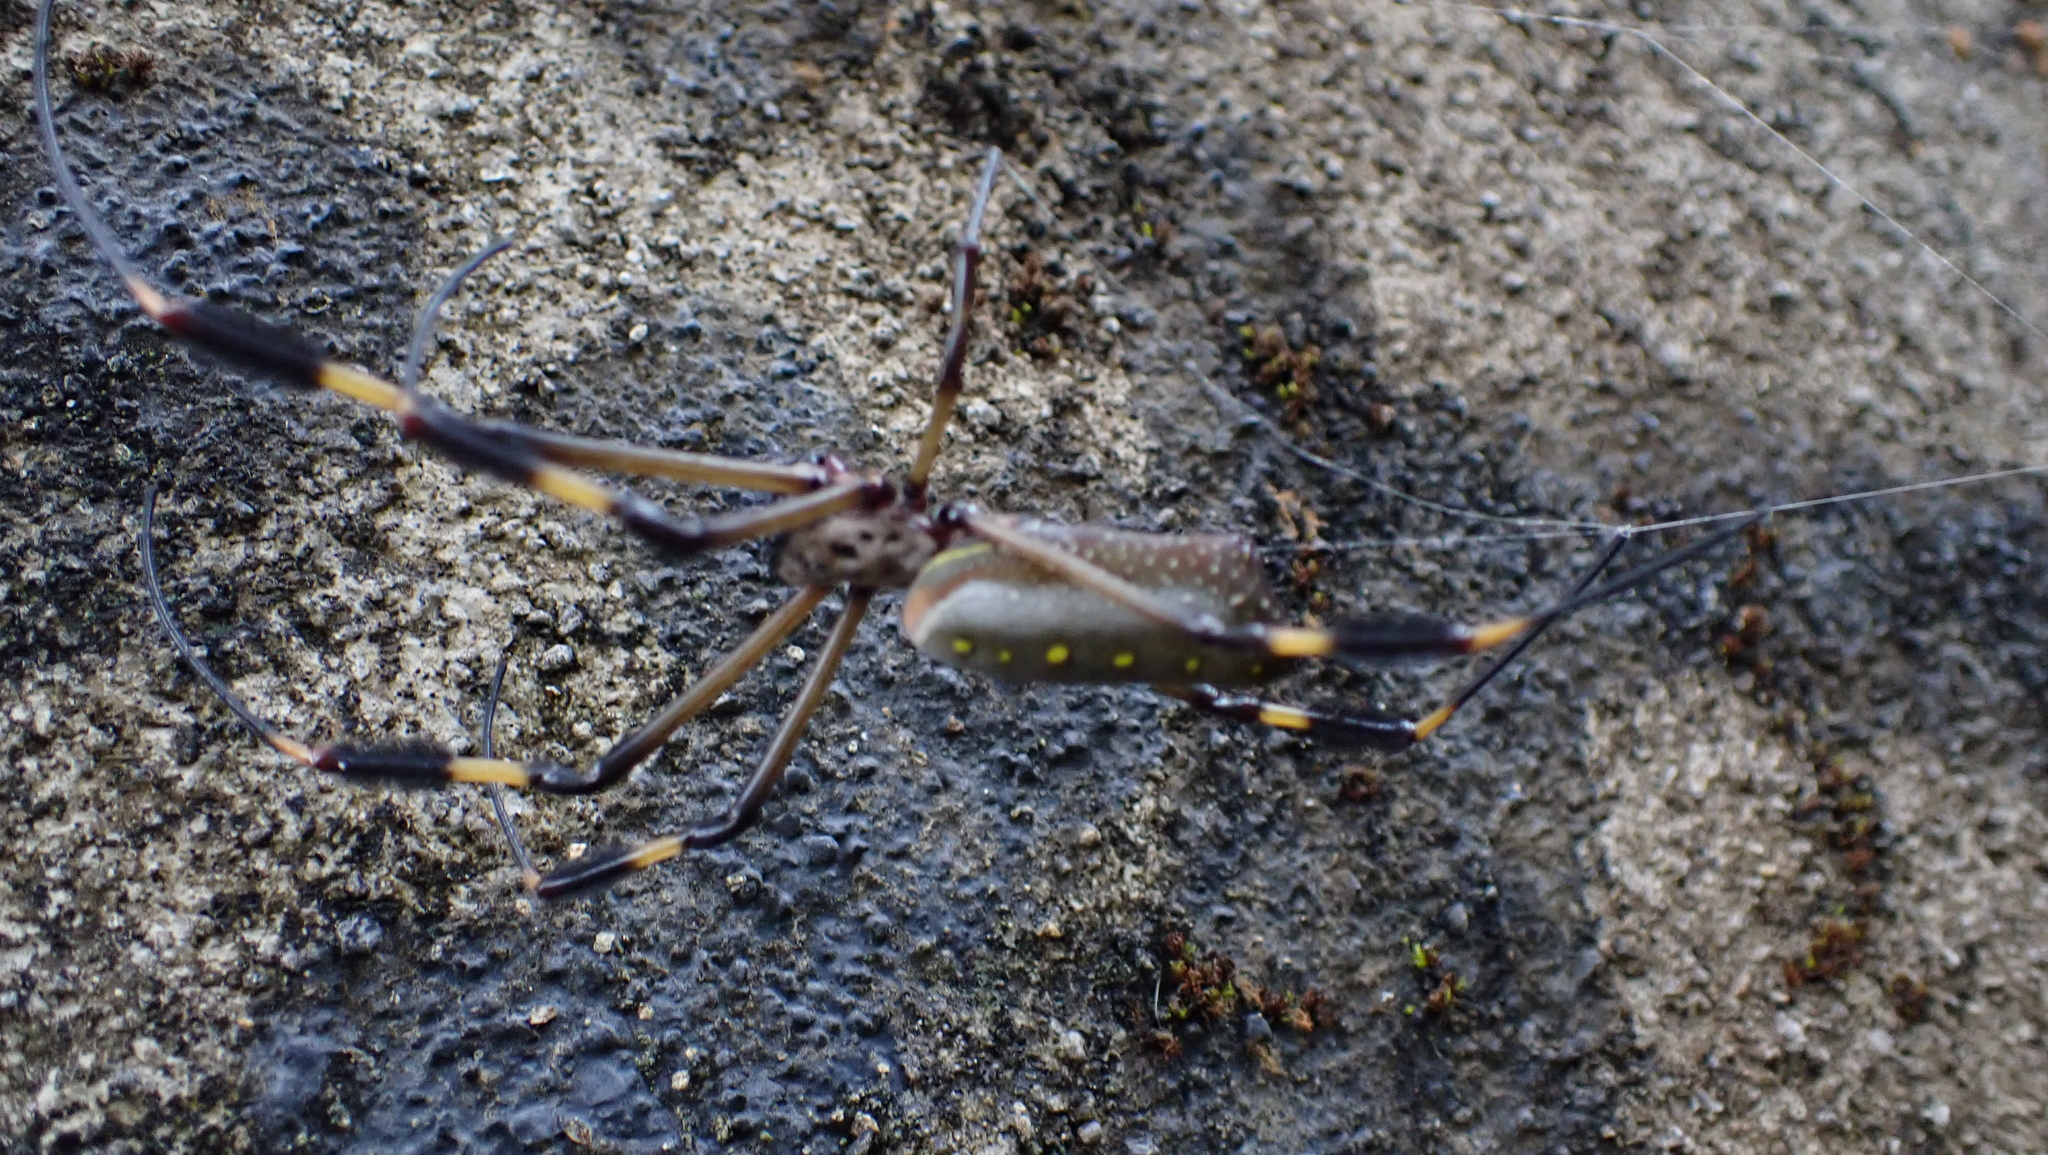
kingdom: Animalia
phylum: Arthropoda
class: Arachnida
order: Araneae
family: Araneidae
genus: Trichonephila
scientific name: Trichonephila clavipes
